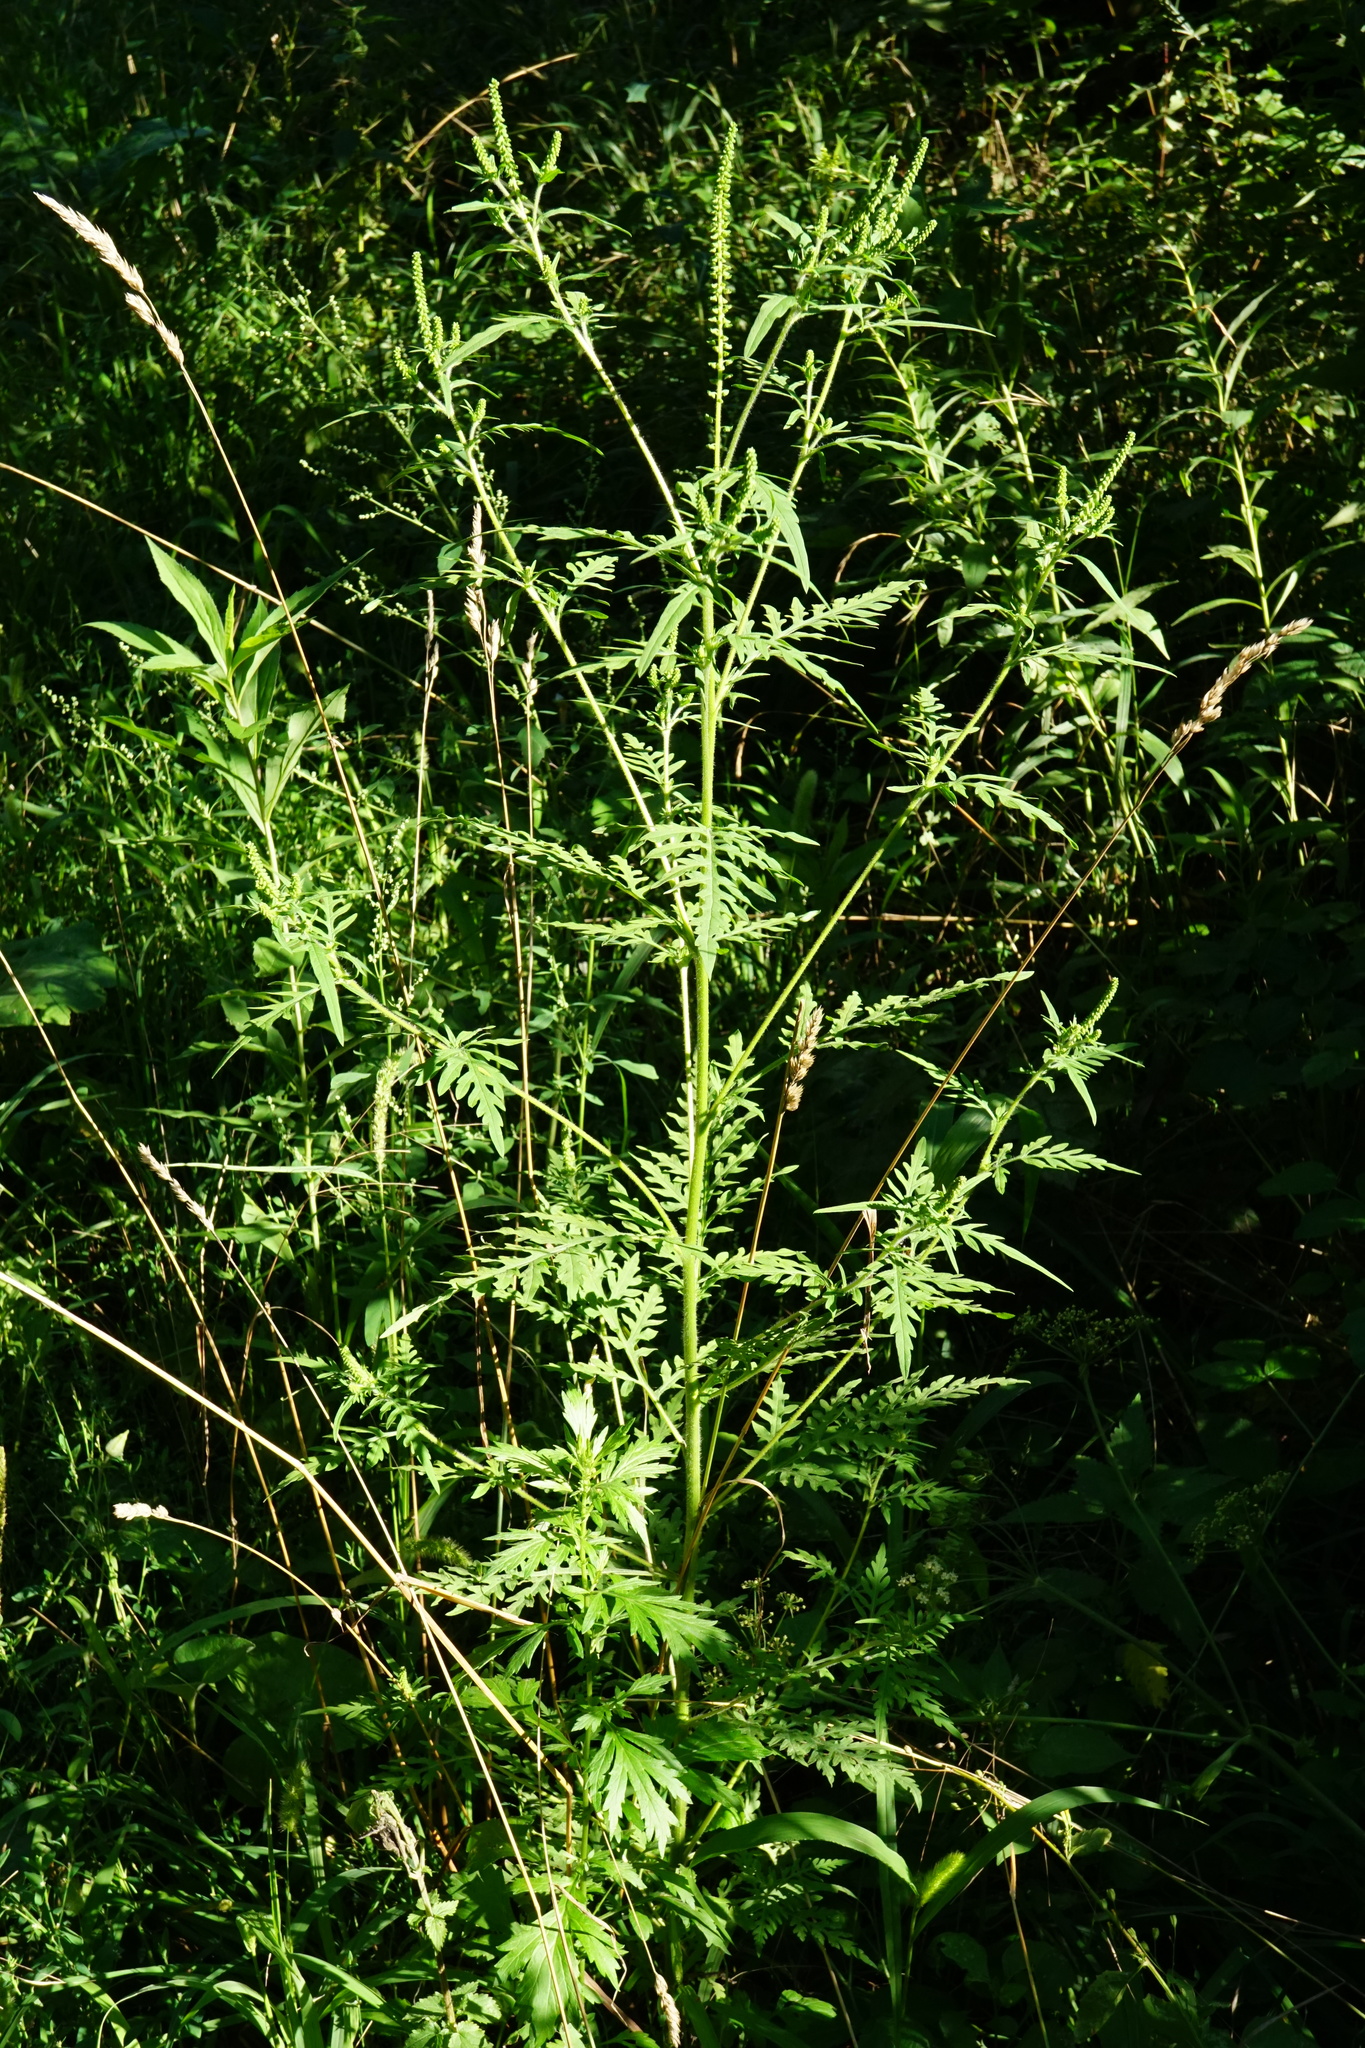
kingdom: Plantae
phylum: Tracheophyta
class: Magnoliopsida
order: Asterales
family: Asteraceae
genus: Ambrosia
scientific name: Ambrosia artemisiifolia
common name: Annual ragweed
